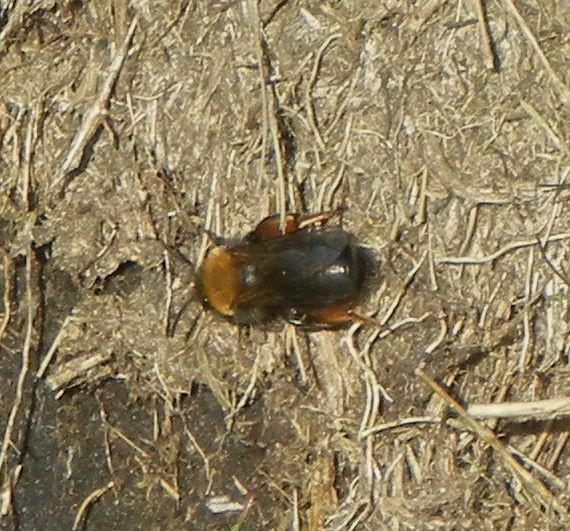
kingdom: Animalia
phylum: Arthropoda
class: Insecta
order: Hymenoptera
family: Andrenidae
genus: Andrena
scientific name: Andrena clarkella
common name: Clarke's mining bee
